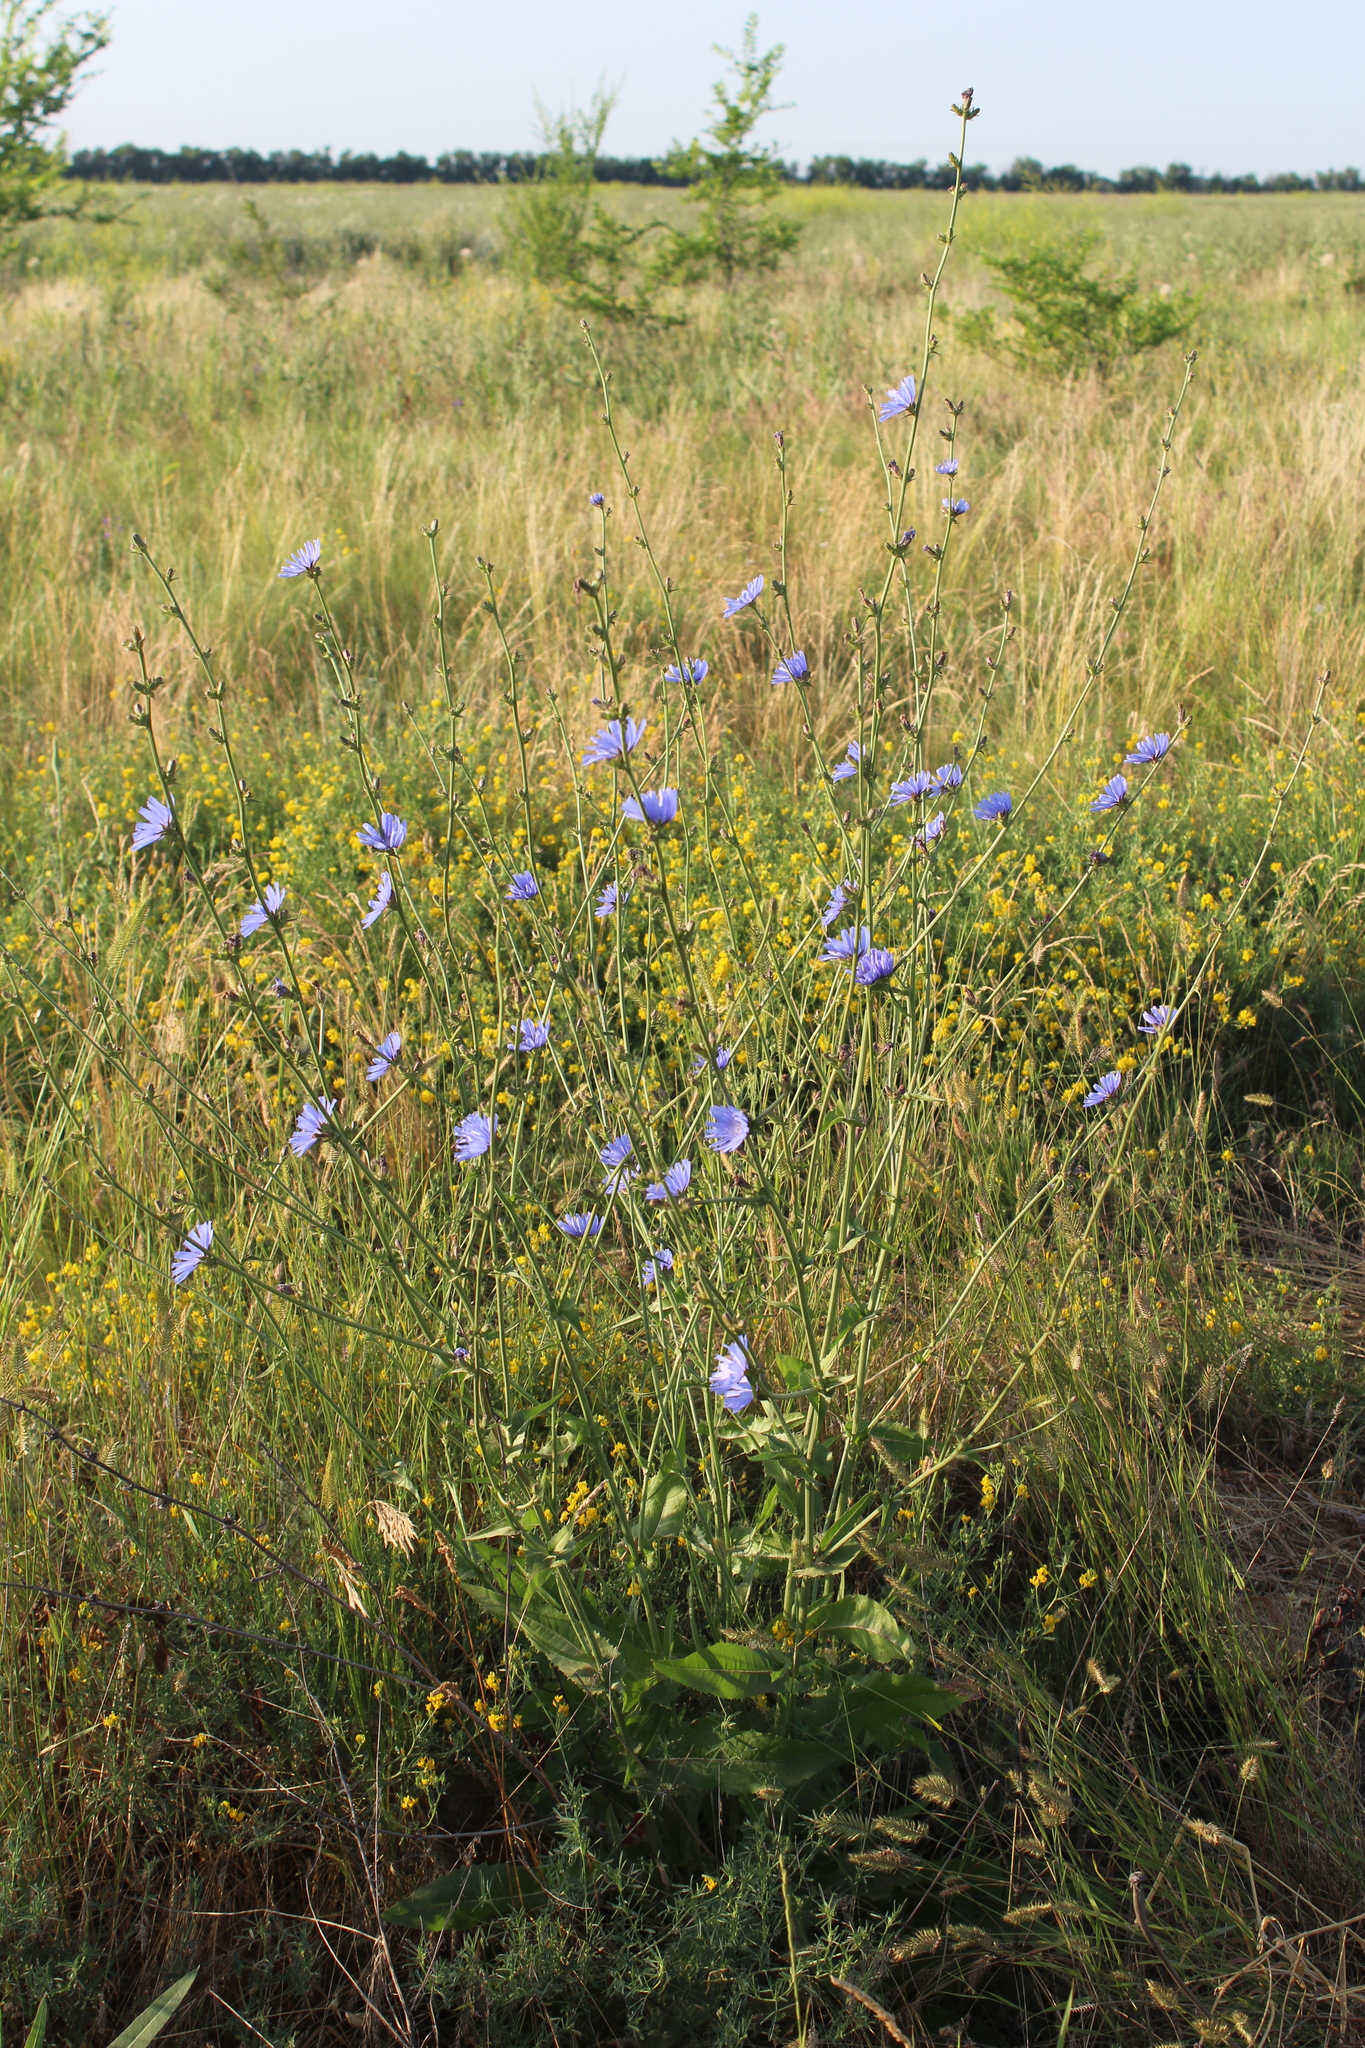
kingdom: Plantae
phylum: Tracheophyta
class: Magnoliopsida
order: Asterales
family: Asteraceae
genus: Cichorium
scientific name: Cichorium intybus
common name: Chicory
